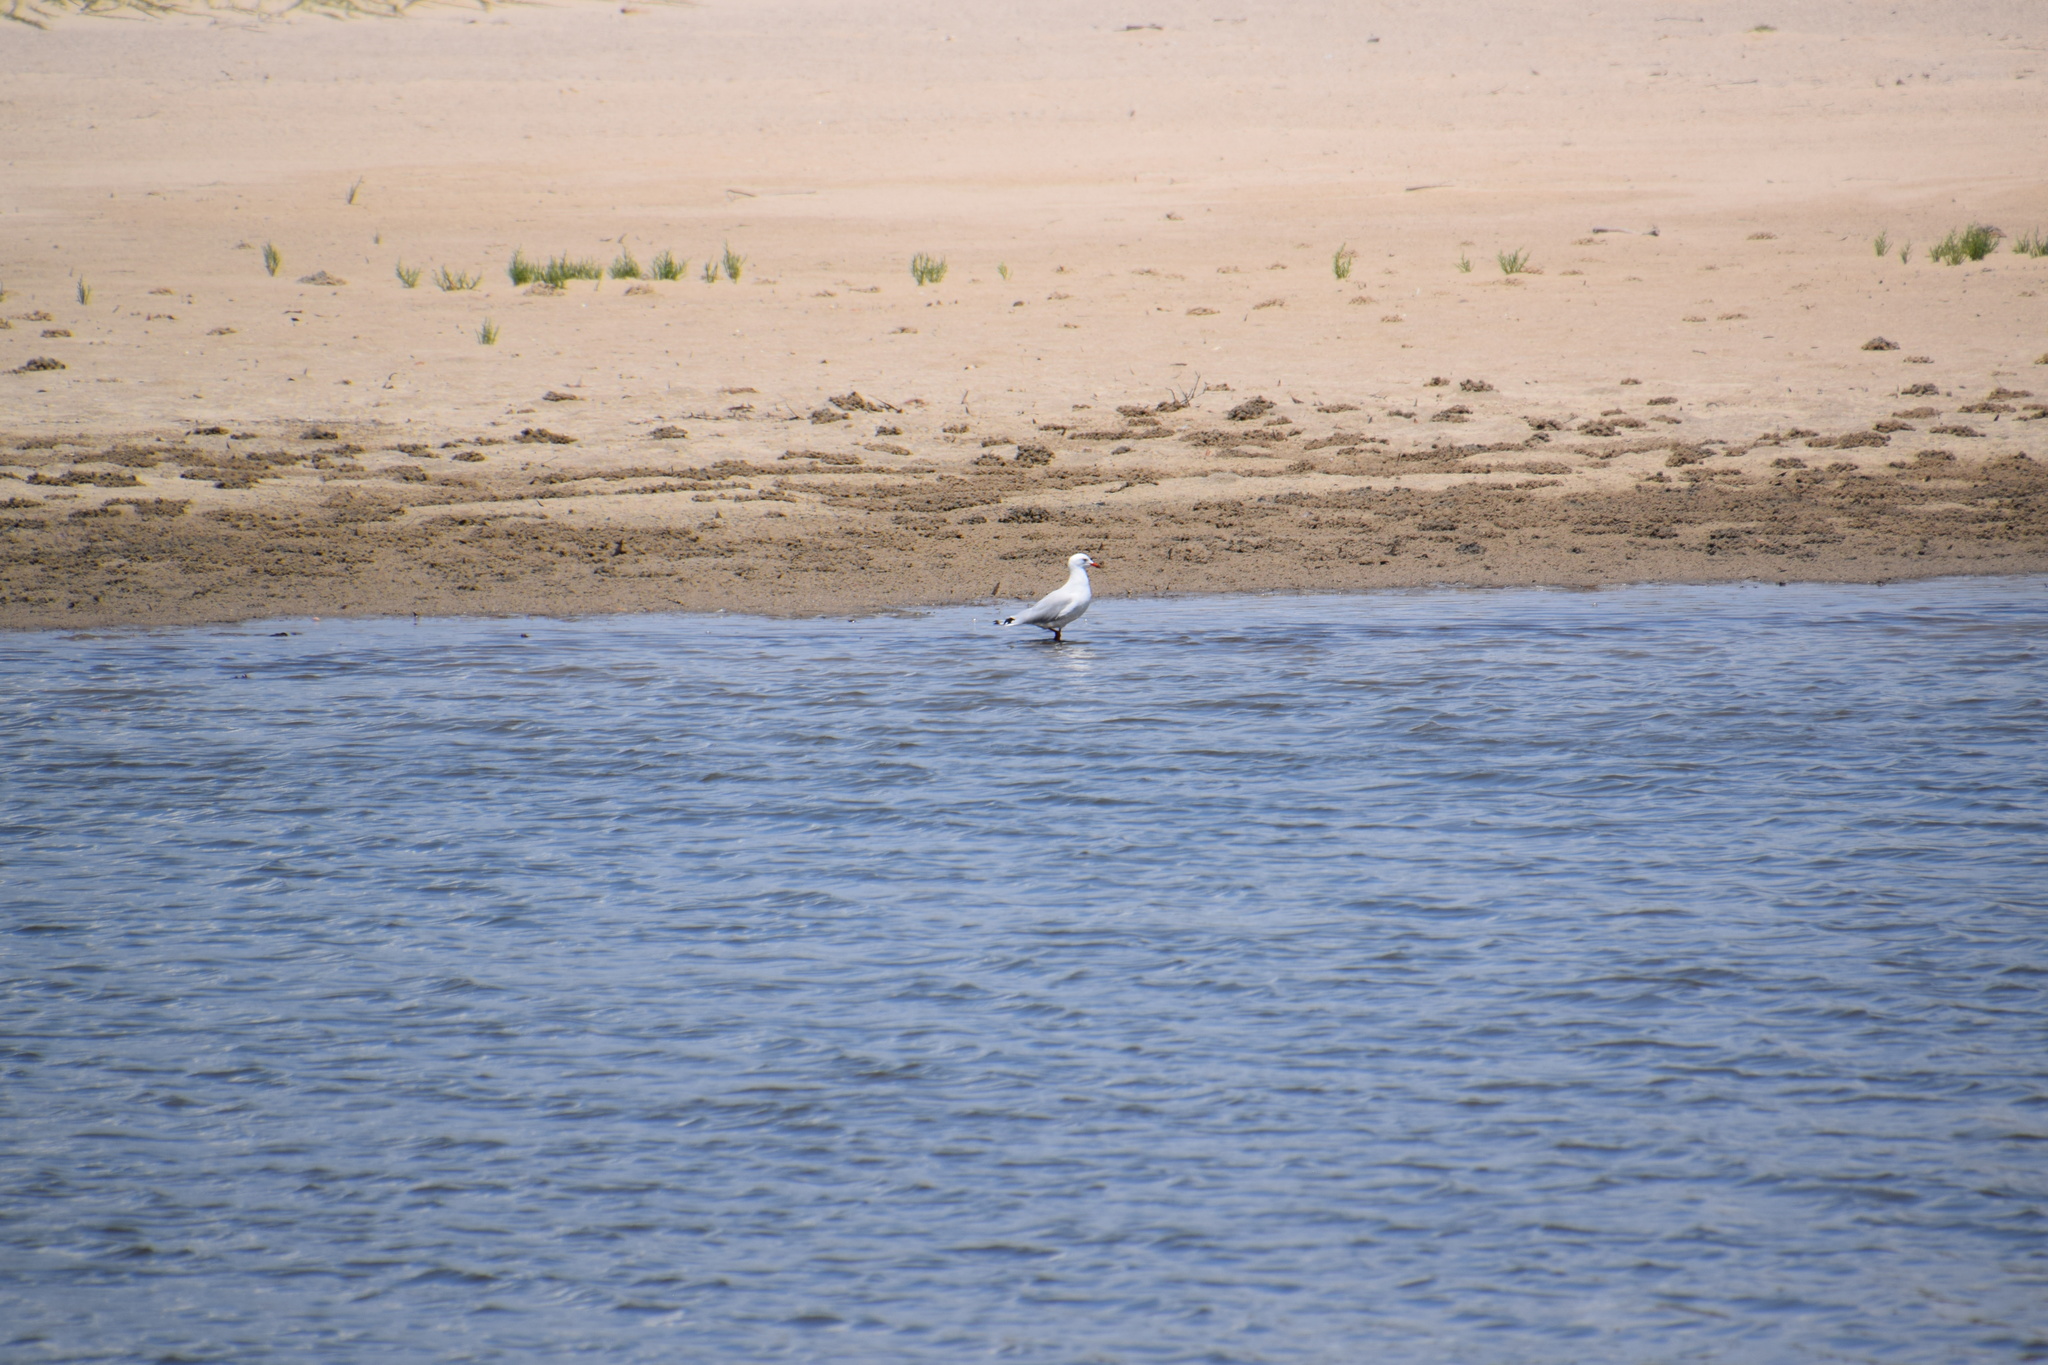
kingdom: Animalia
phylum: Chordata
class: Aves
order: Charadriiformes
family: Laridae
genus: Chroicocephalus
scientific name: Chroicocephalus novaehollandiae
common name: Silver gull
